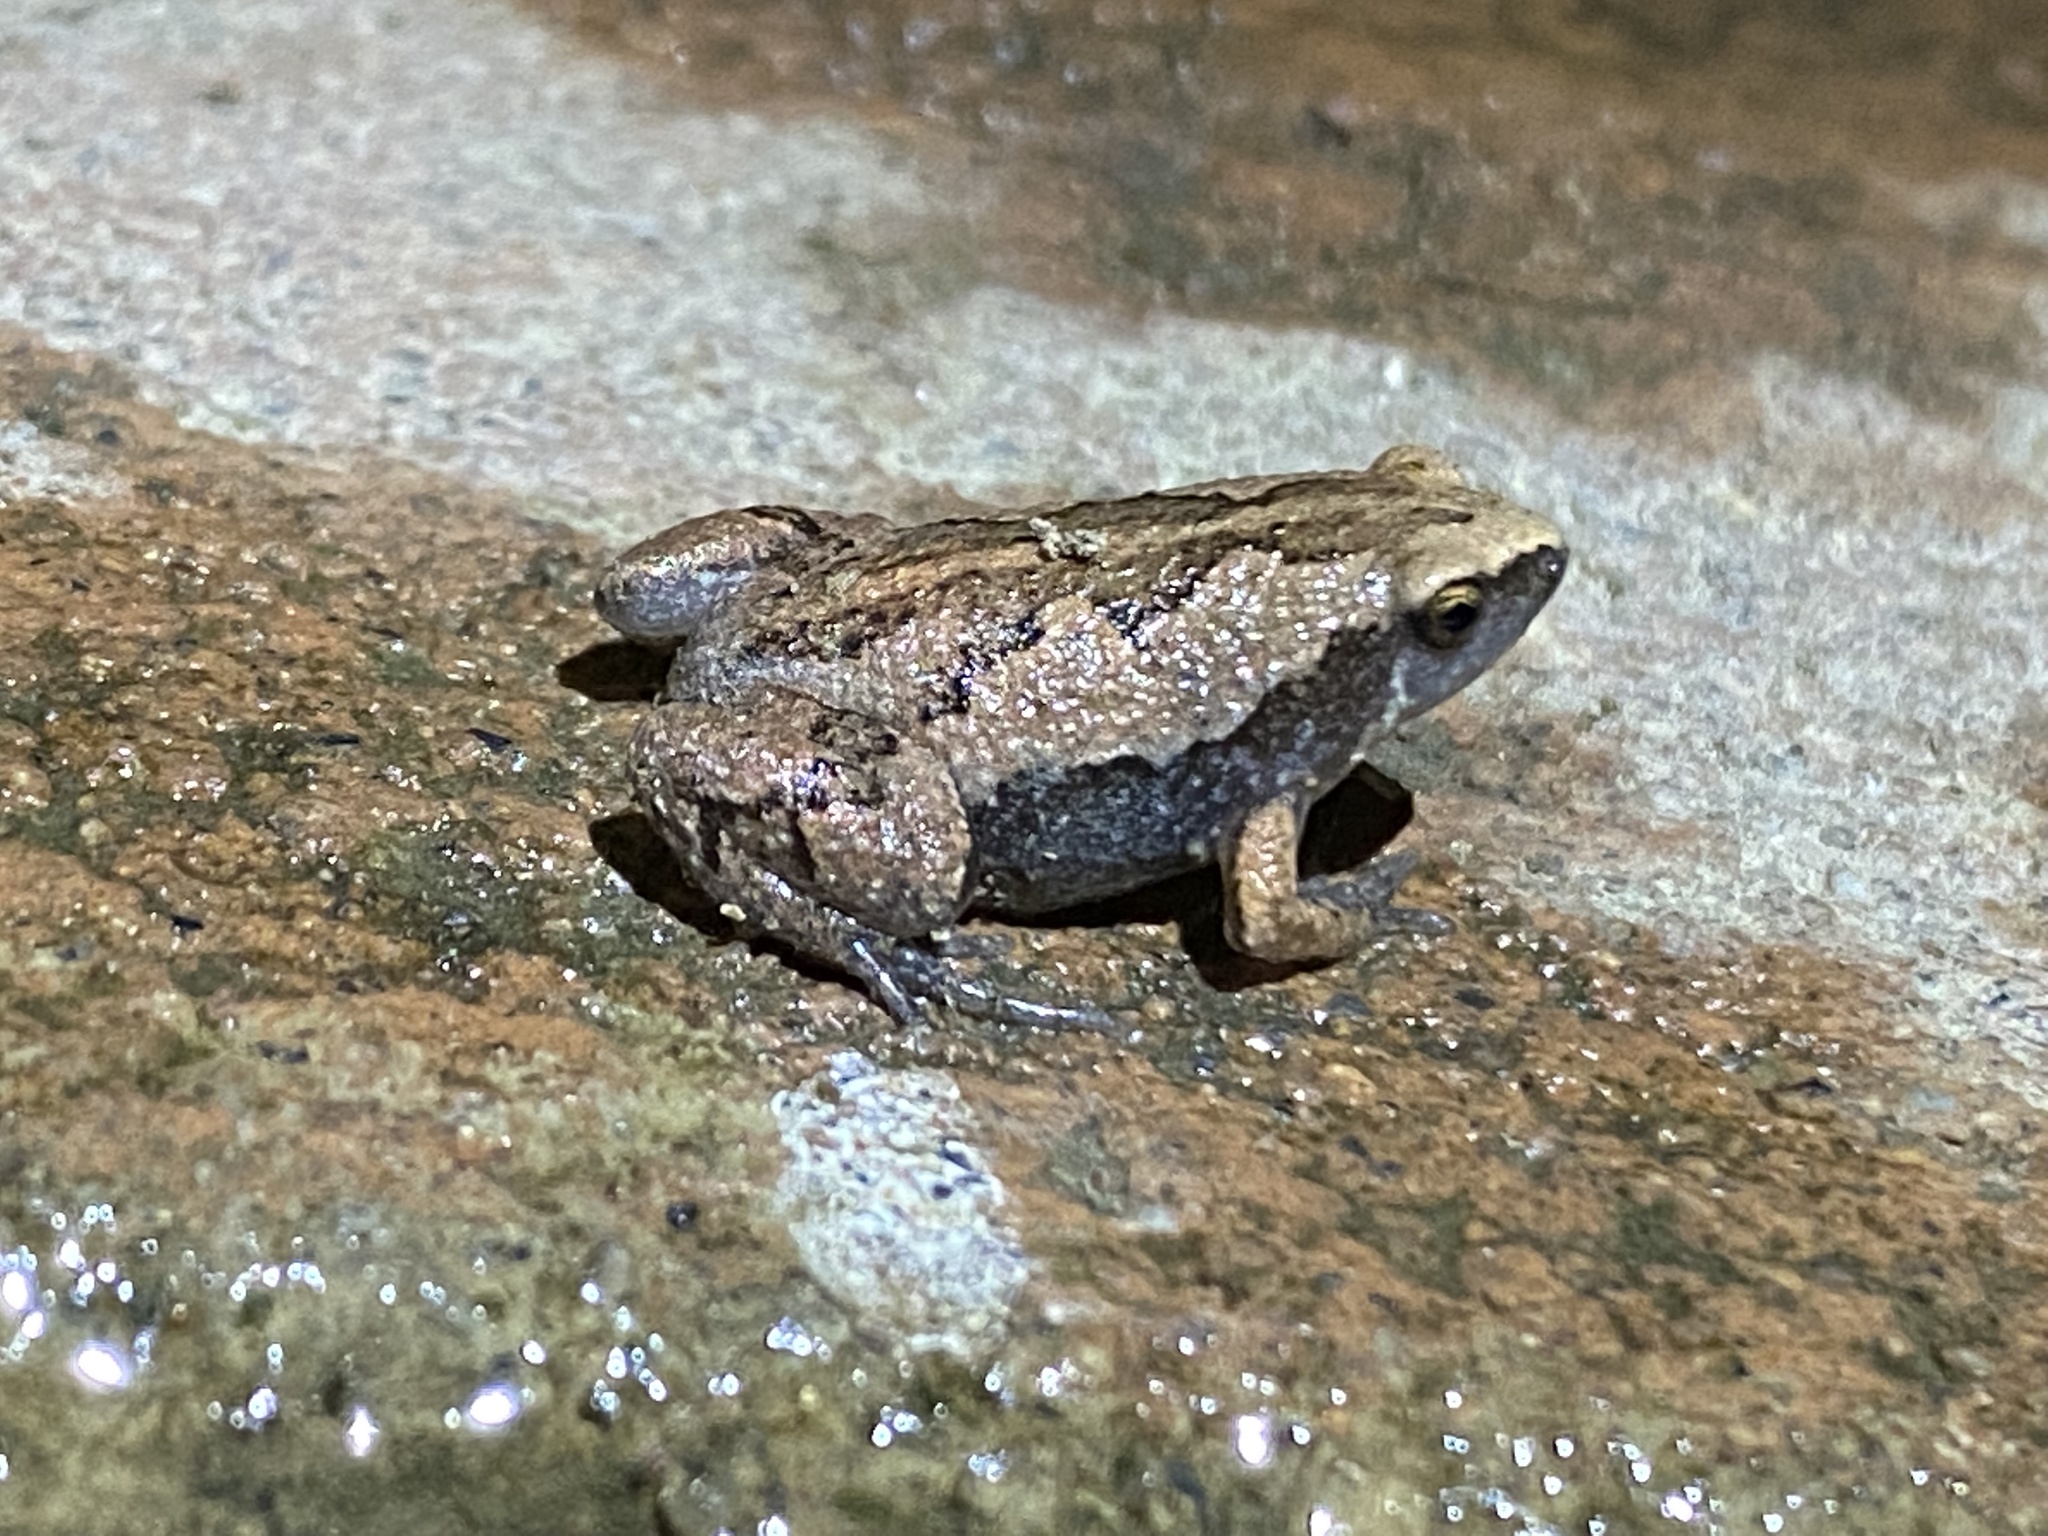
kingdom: Animalia
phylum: Chordata
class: Amphibia
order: Anura
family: Microhylidae
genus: Hypopachus
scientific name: Hypopachus variolosus
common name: Sheep frog
